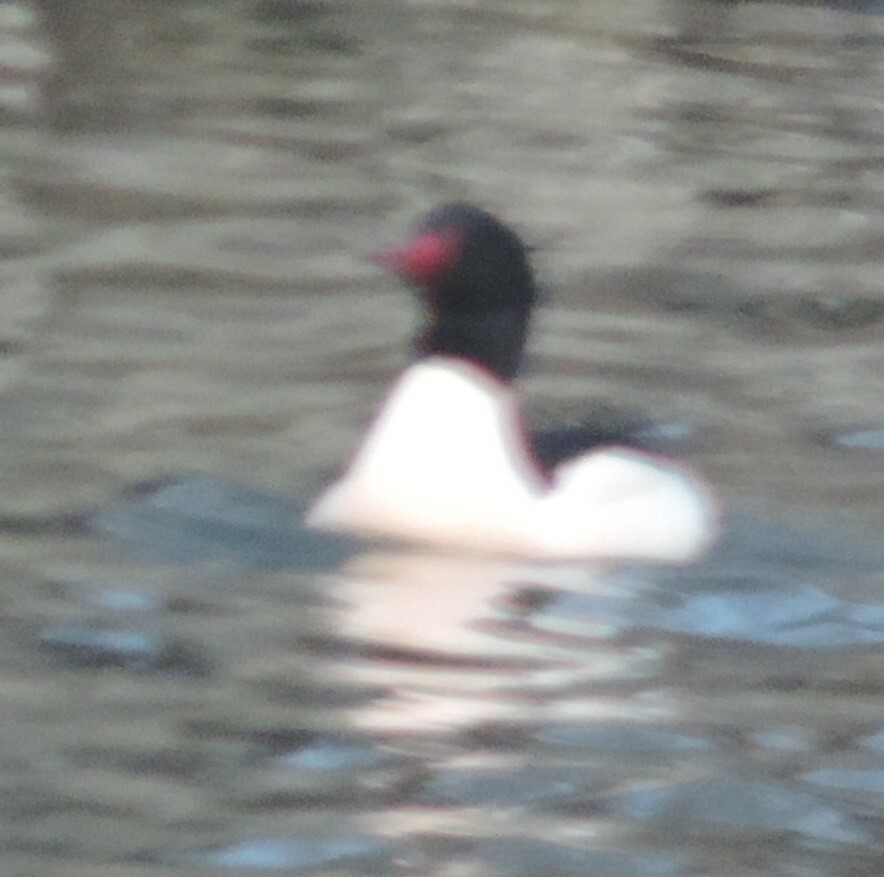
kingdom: Animalia
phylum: Chordata
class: Aves
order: Anseriformes
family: Anatidae
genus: Mergus
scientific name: Mergus merganser
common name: Common merganser
